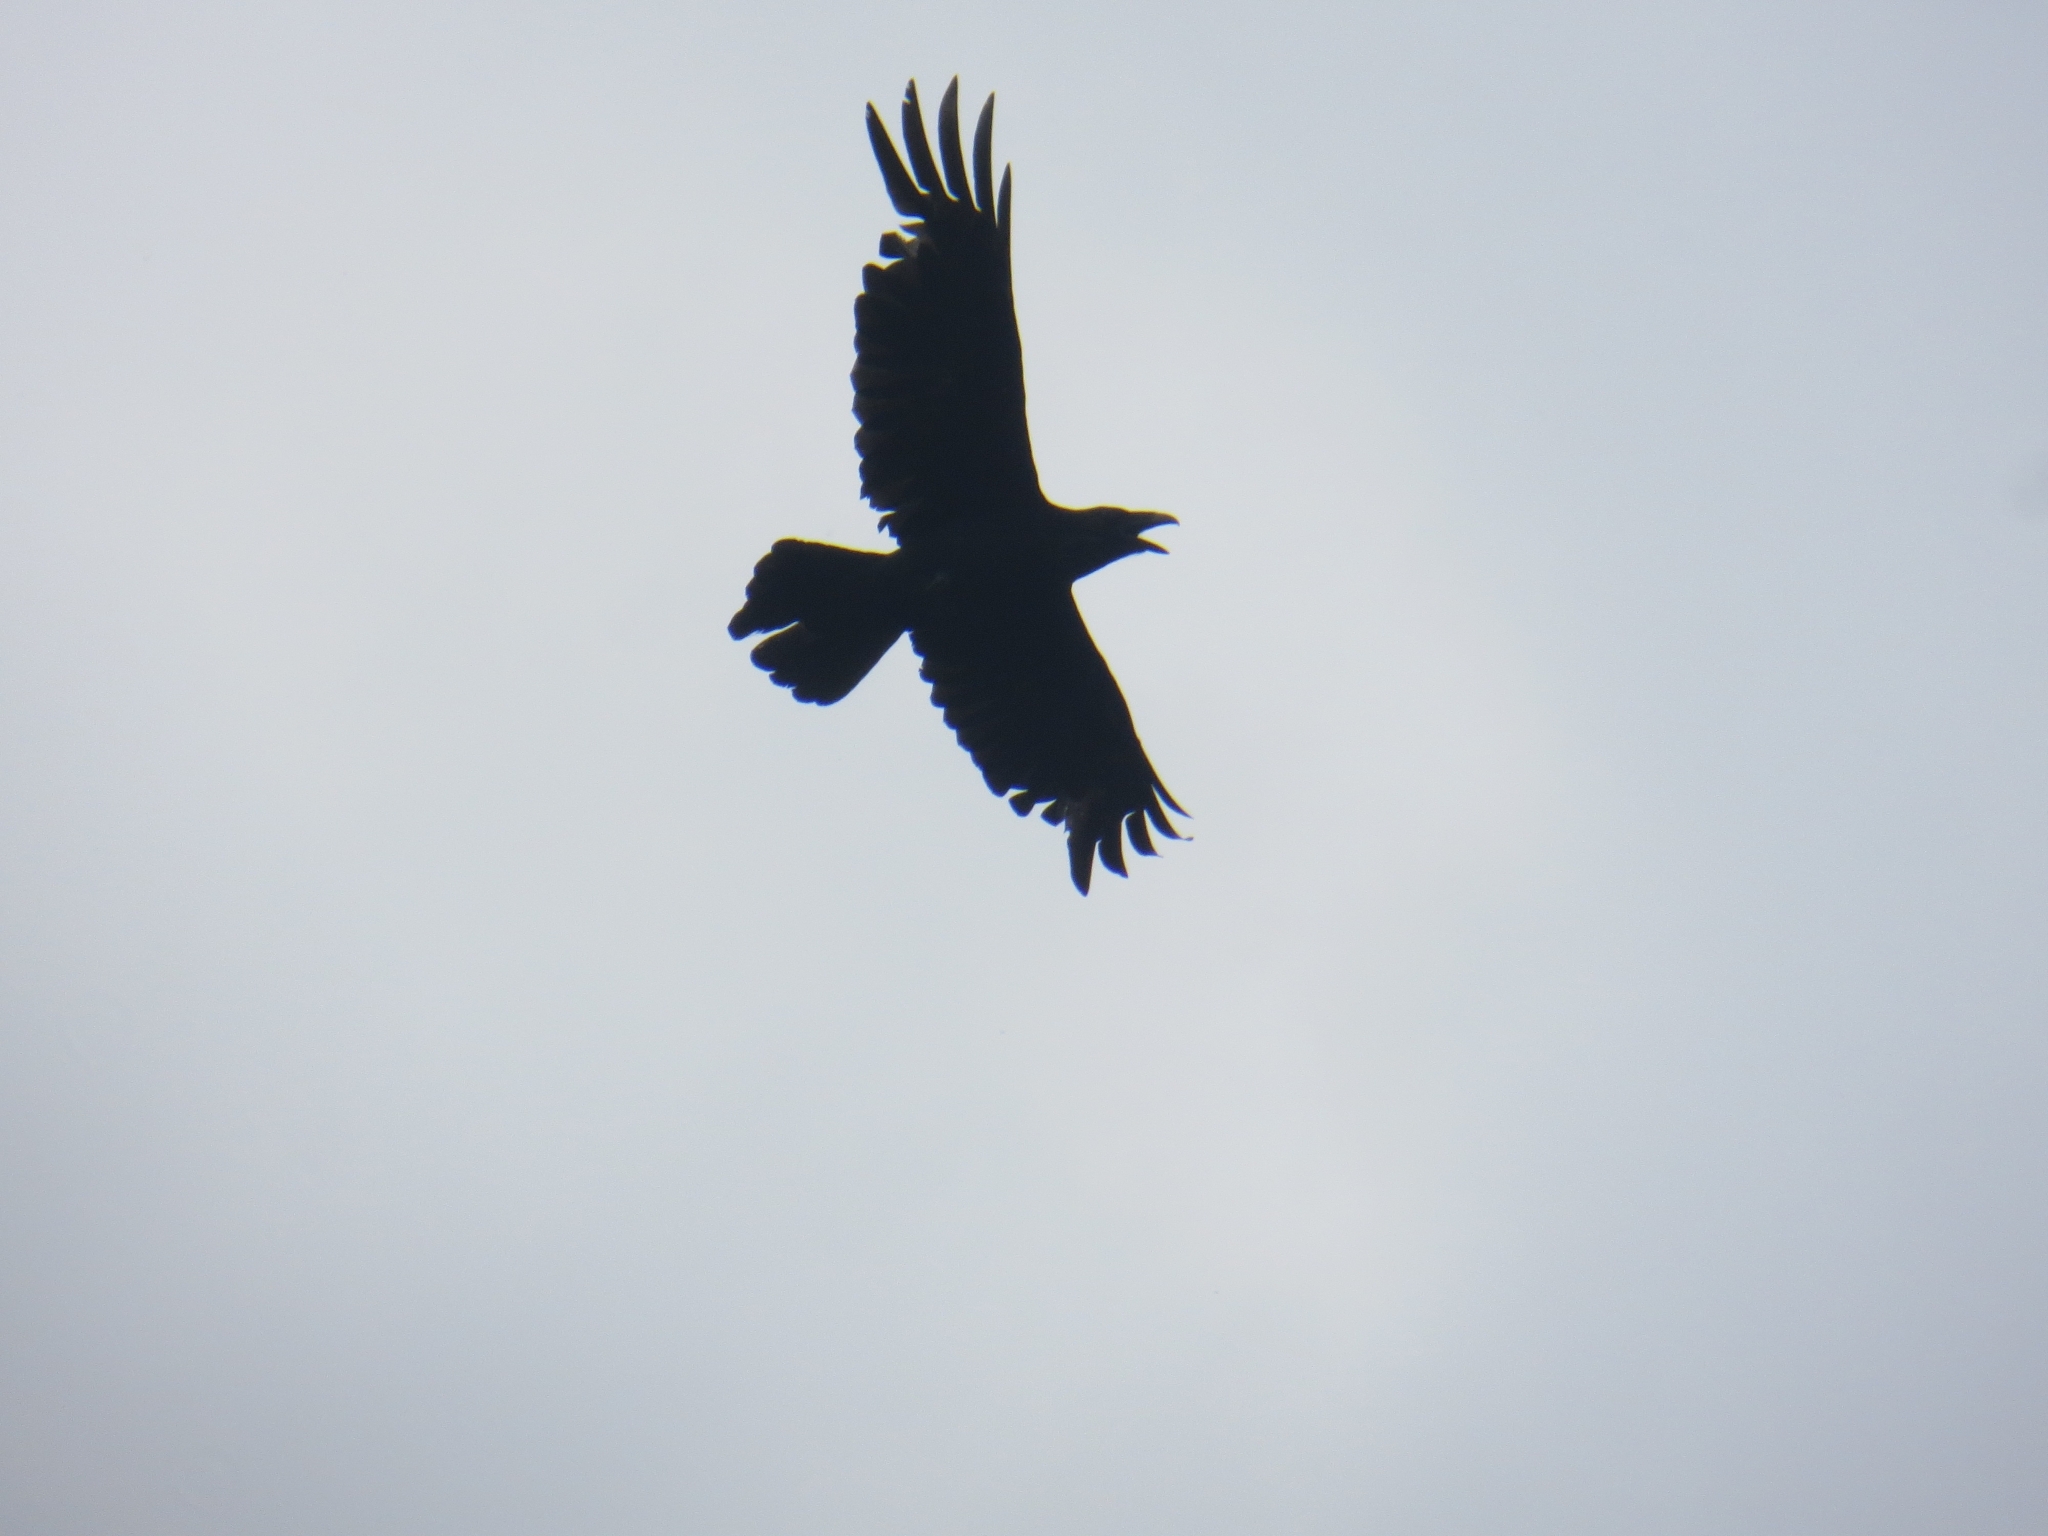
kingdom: Animalia
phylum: Chordata
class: Aves
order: Passeriformes
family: Corvidae
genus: Corvus
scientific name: Corvus corax
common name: Common raven
